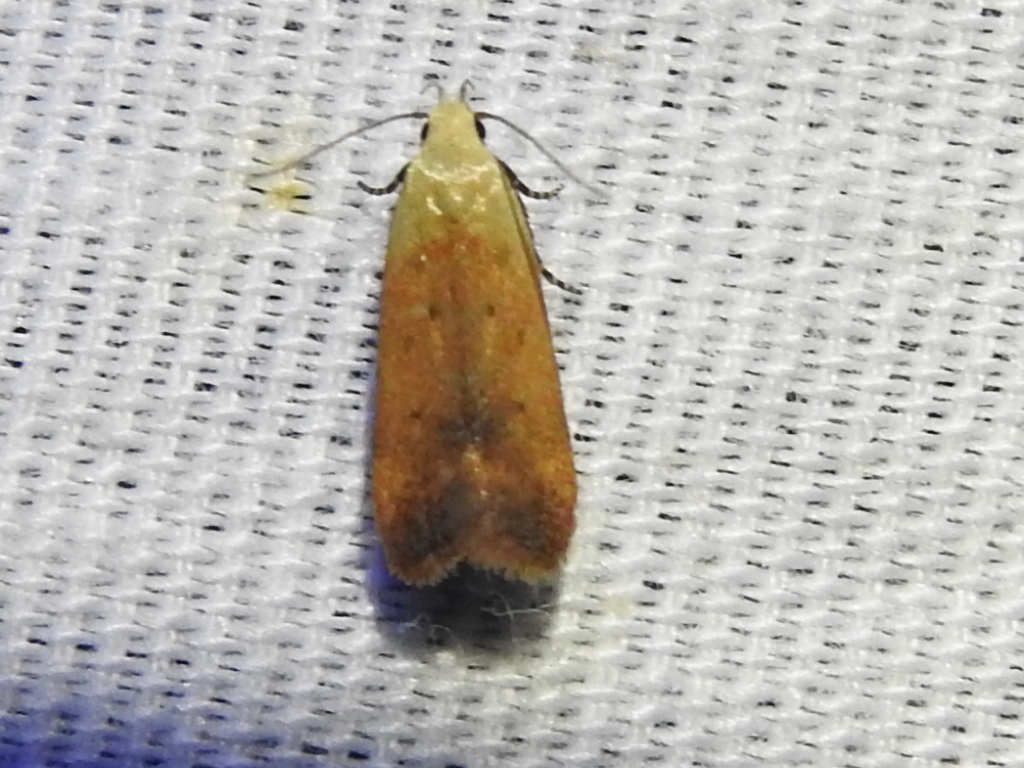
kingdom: Animalia
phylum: Arthropoda
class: Insecta
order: Lepidoptera
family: Gelechiidae
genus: Anacampsis
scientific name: Anacampsis fullonella
